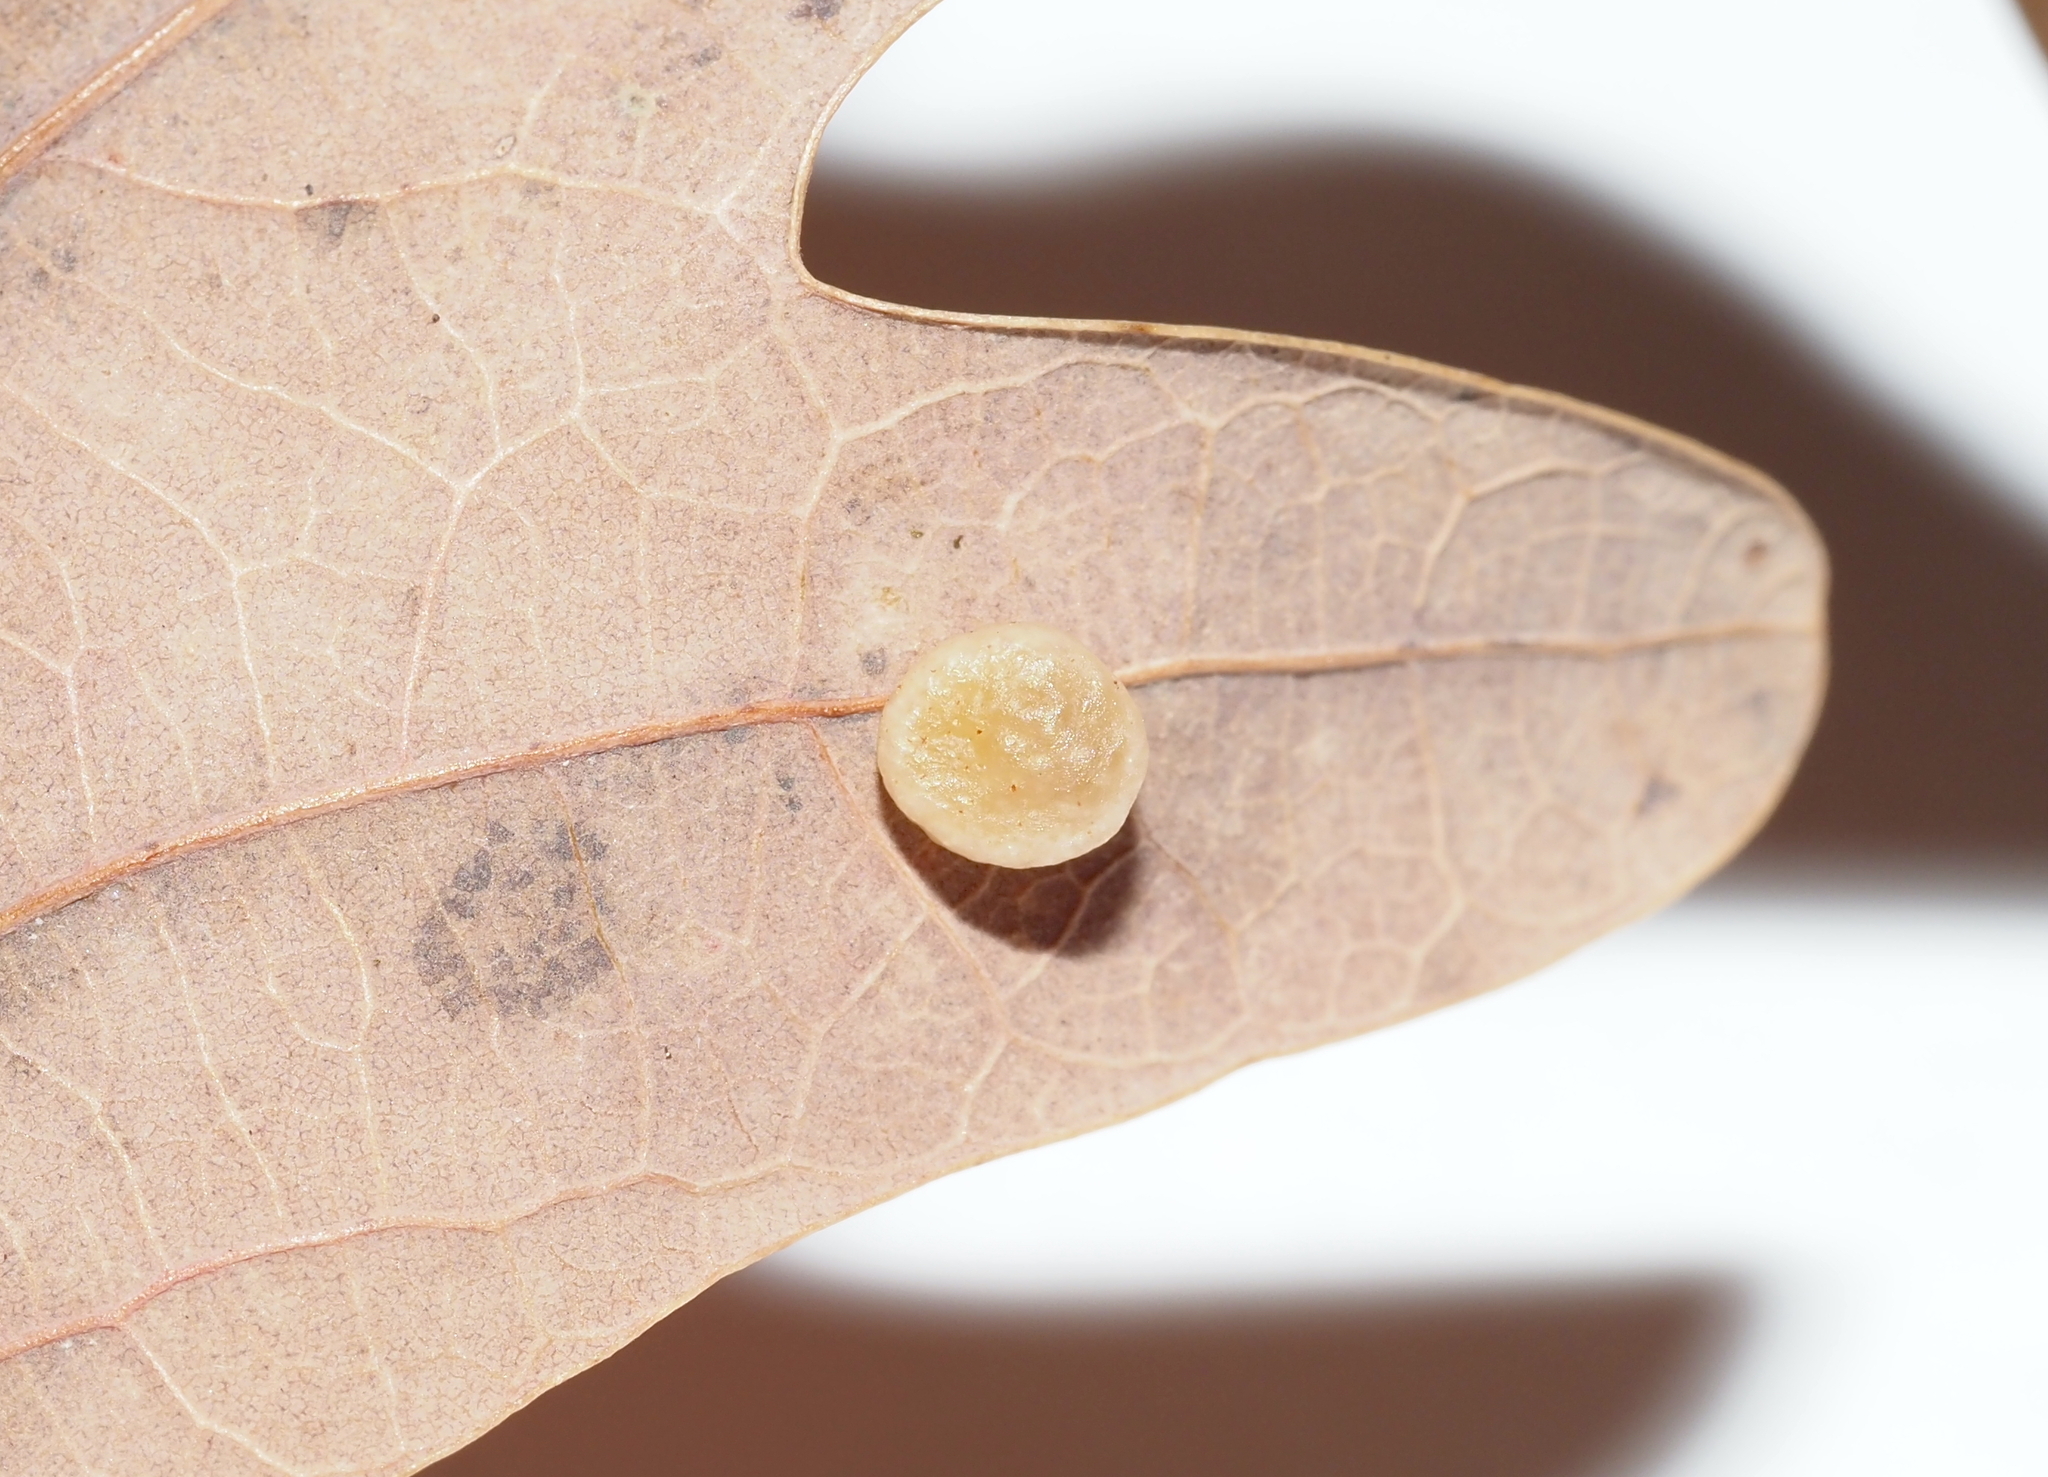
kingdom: Animalia
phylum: Arthropoda
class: Insecta
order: Hymenoptera
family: Cynipidae
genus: Phylloteras
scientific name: Phylloteras
